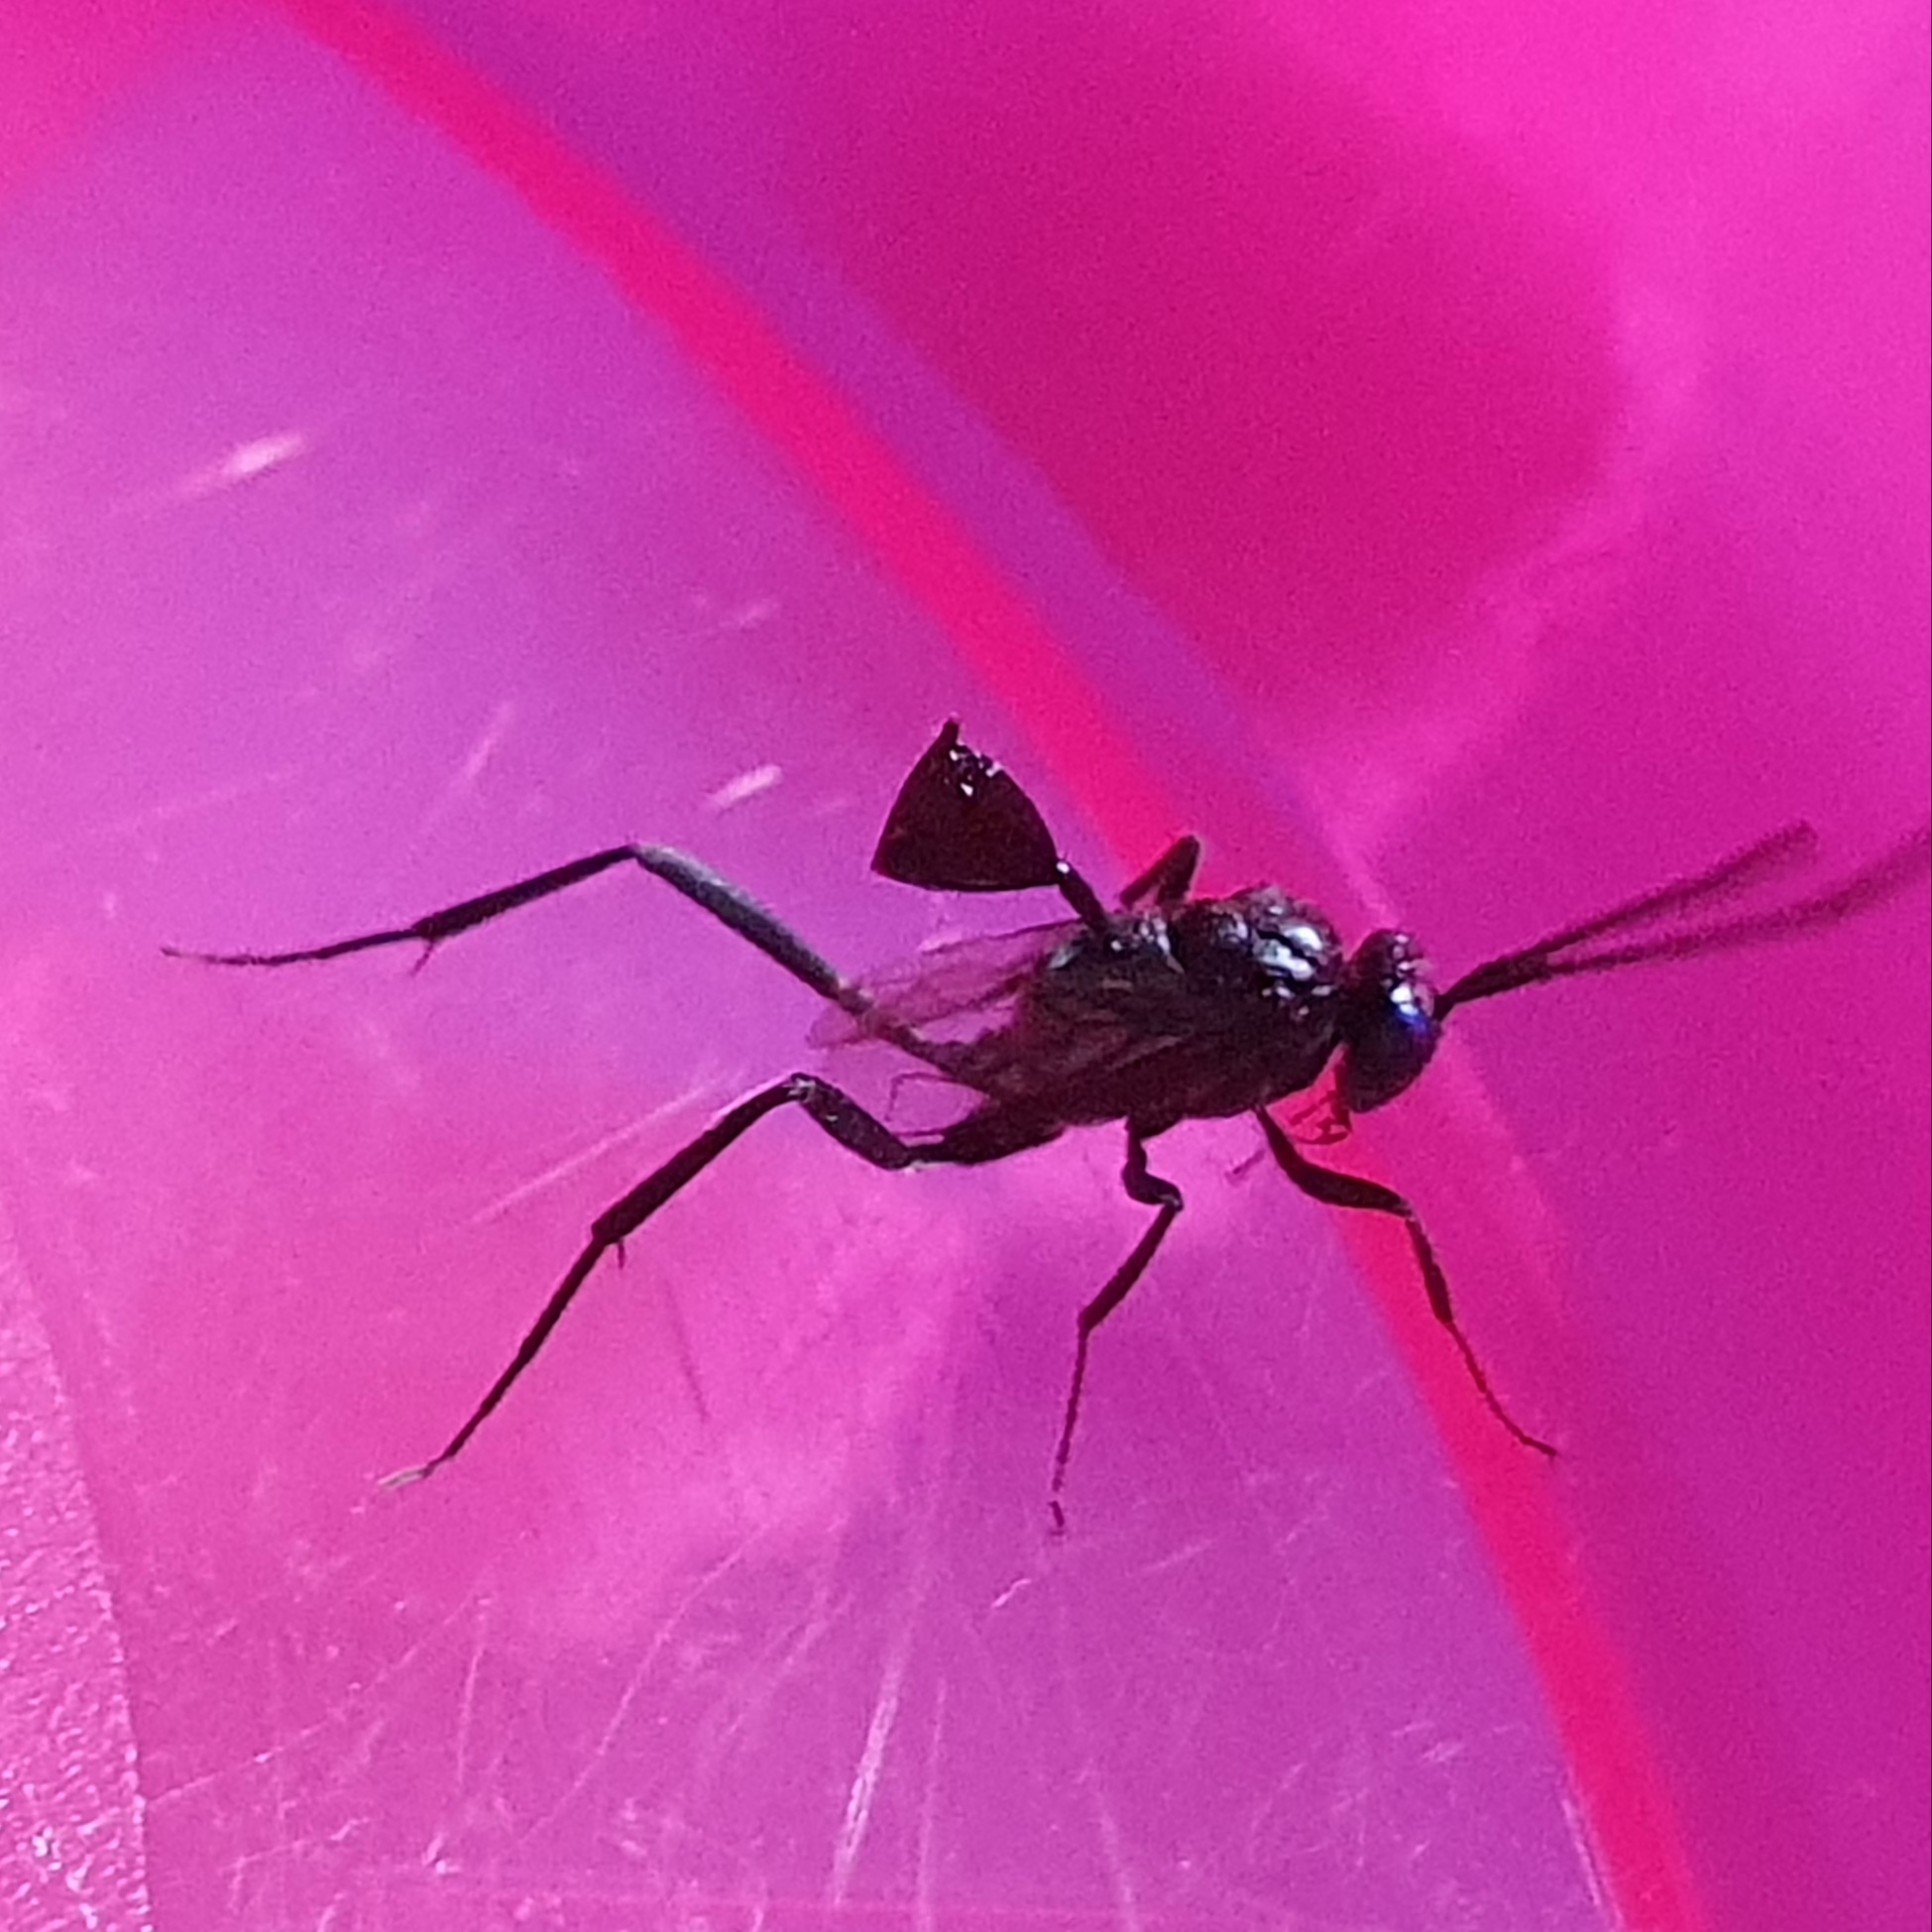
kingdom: Animalia
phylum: Arthropoda
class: Insecta
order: Hymenoptera
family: Evaniidae
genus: Evania
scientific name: Evania appendigaster
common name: Ensign wasp
